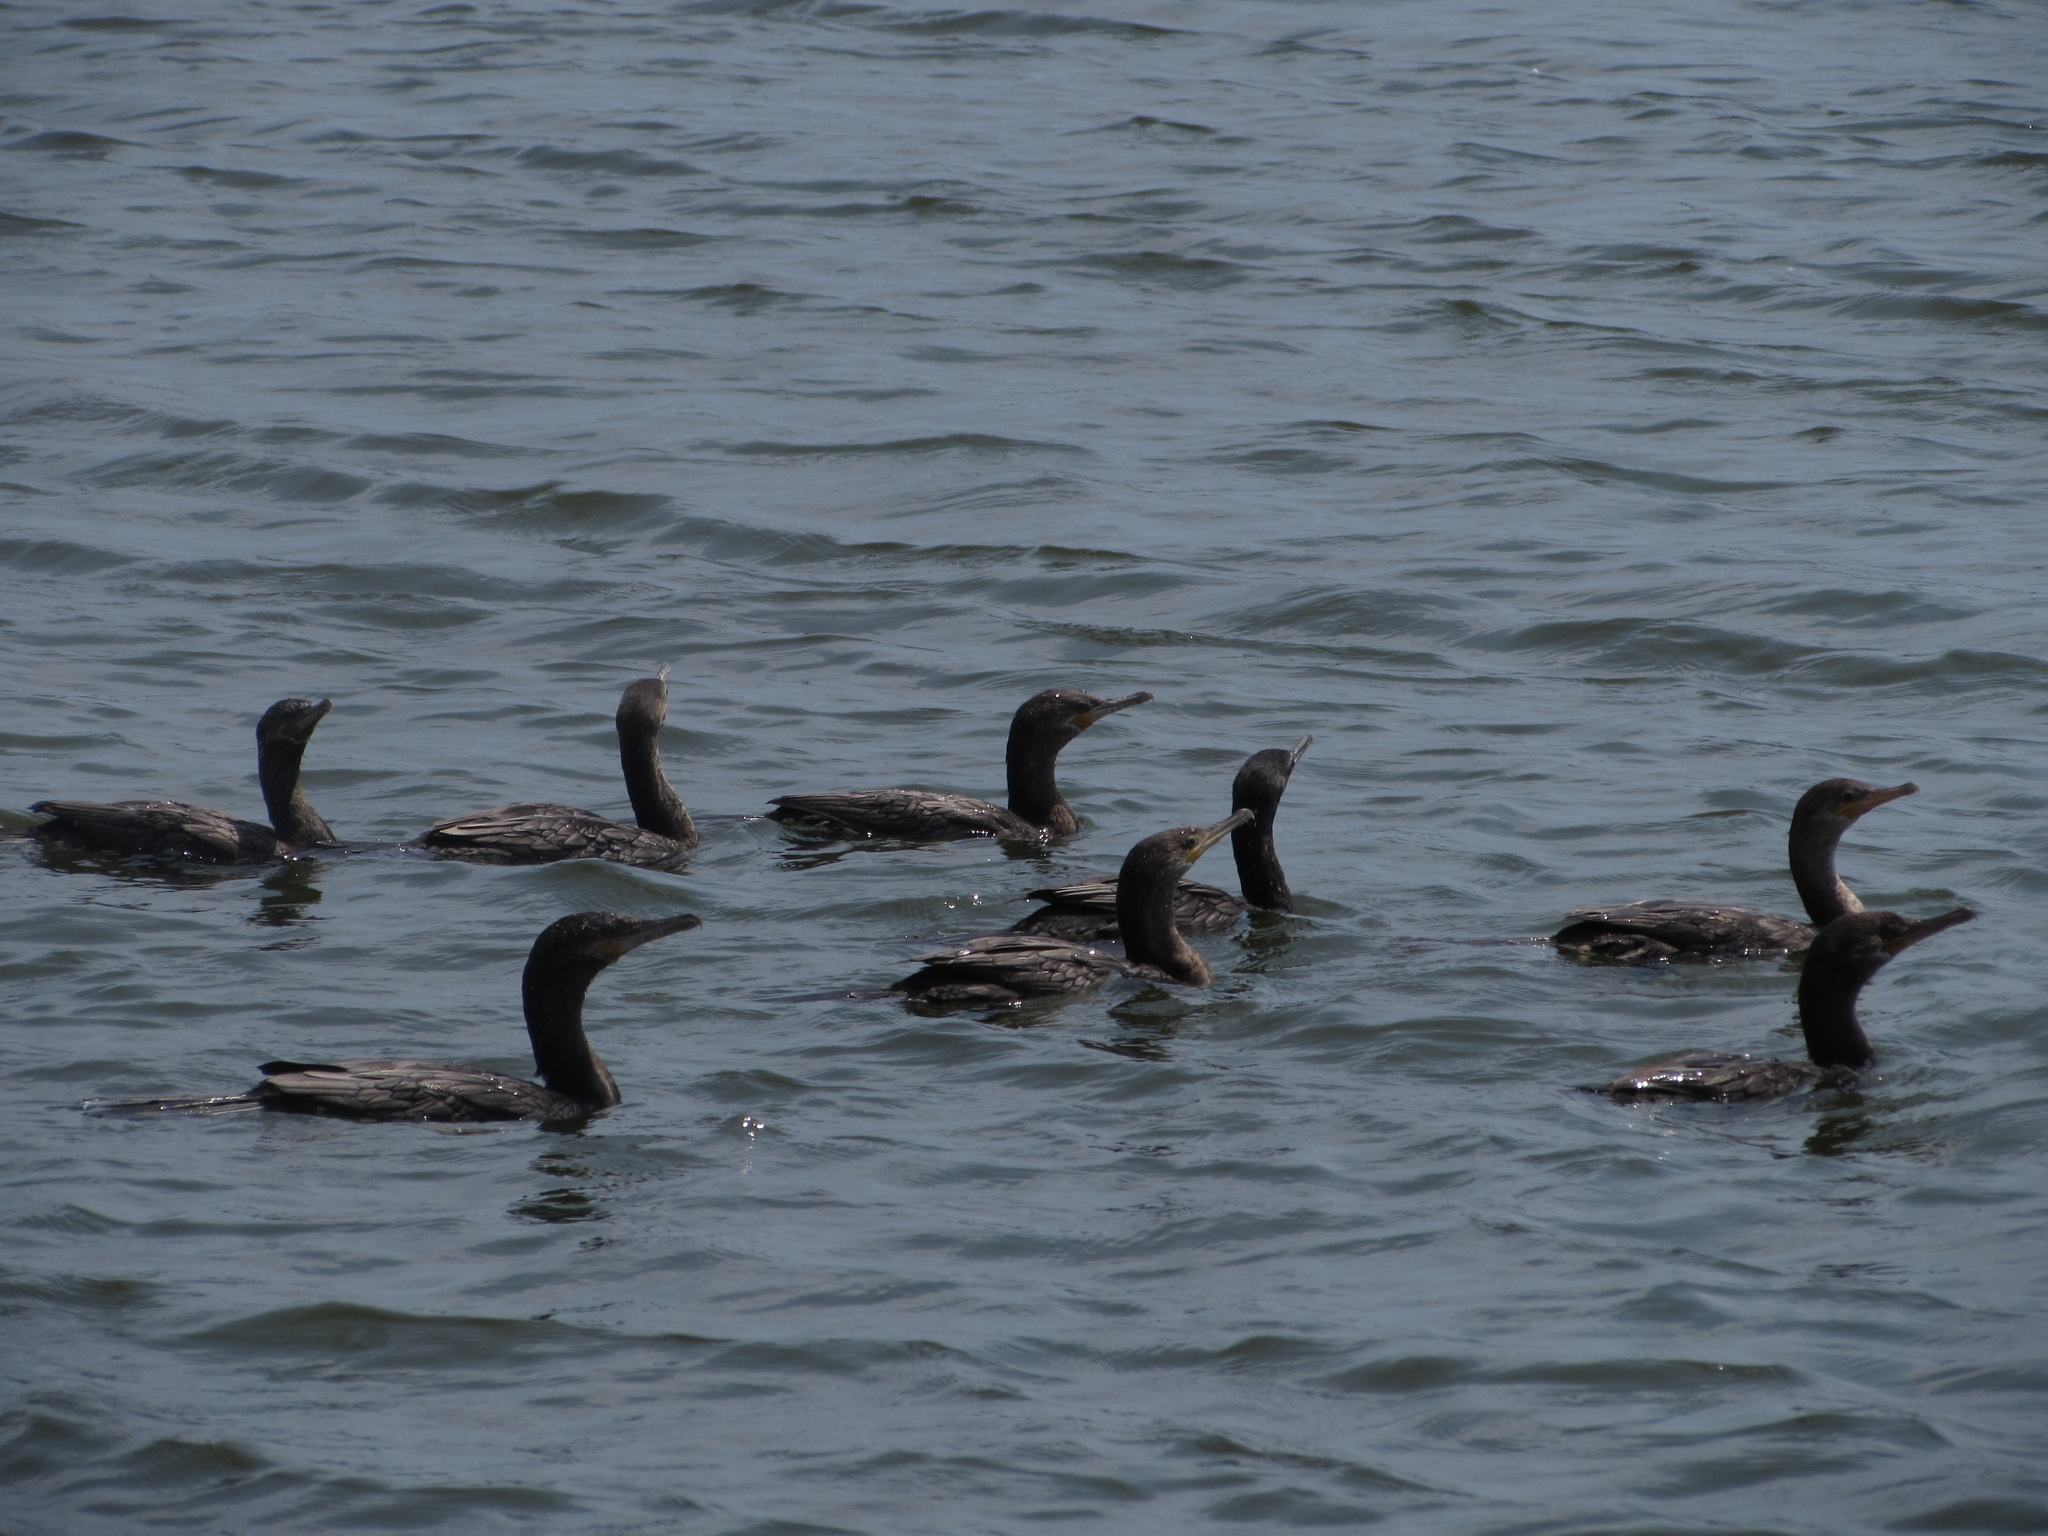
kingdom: Animalia
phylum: Chordata
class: Aves
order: Suliformes
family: Phalacrocoracidae
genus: Phalacrocorax
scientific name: Phalacrocorax brasilianus
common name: Neotropic cormorant
